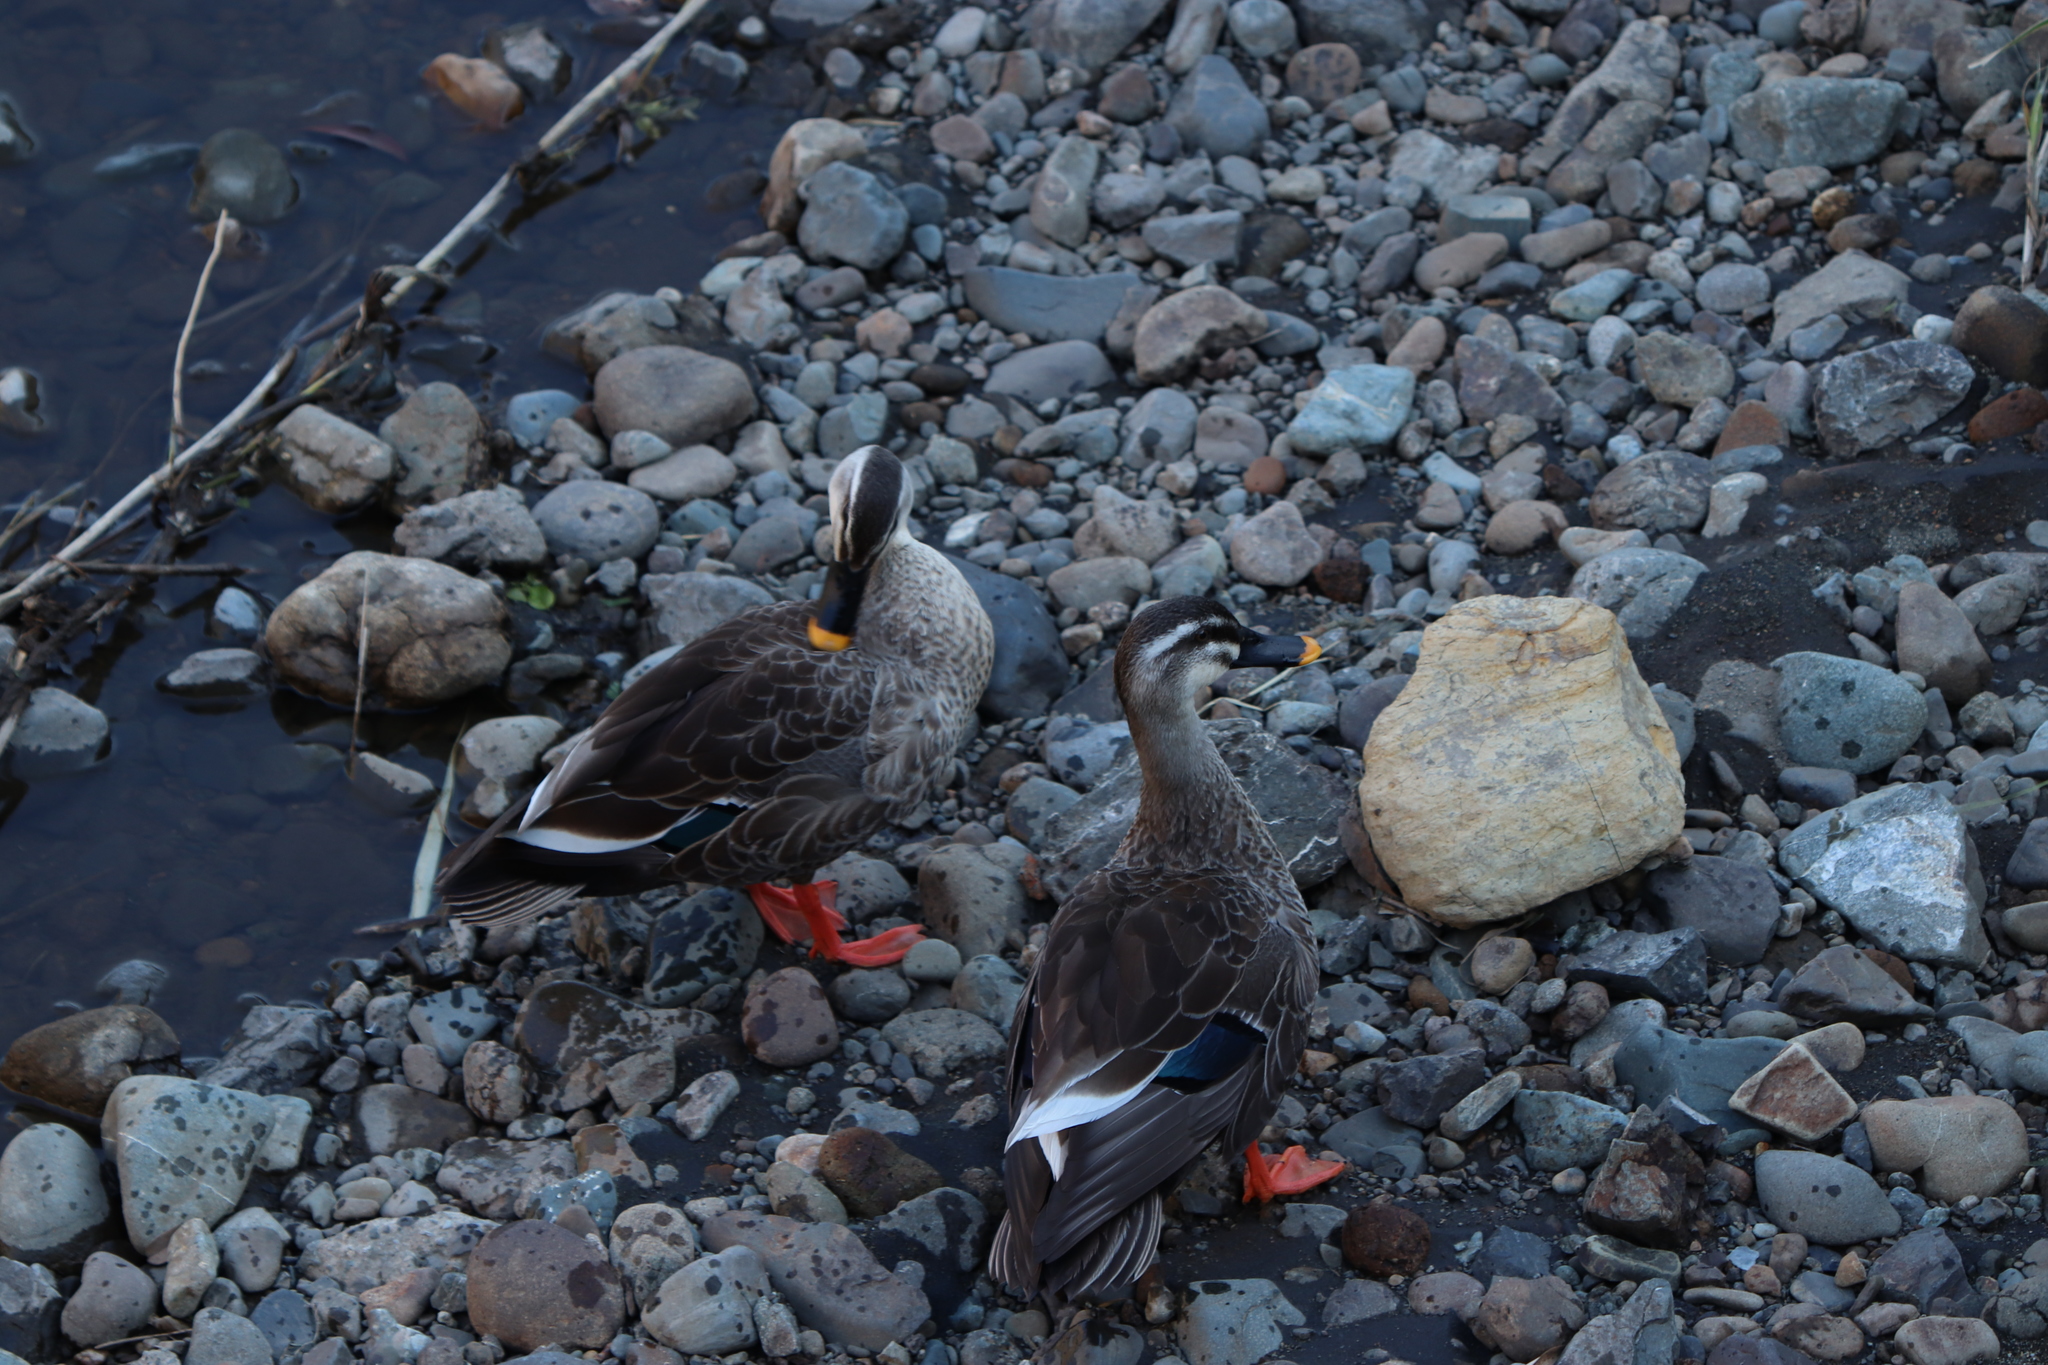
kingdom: Animalia
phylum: Chordata
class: Aves
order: Anseriformes
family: Anatidae
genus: Anas
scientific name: Anas zonorhyncha
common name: Eastern spot-billed duck
